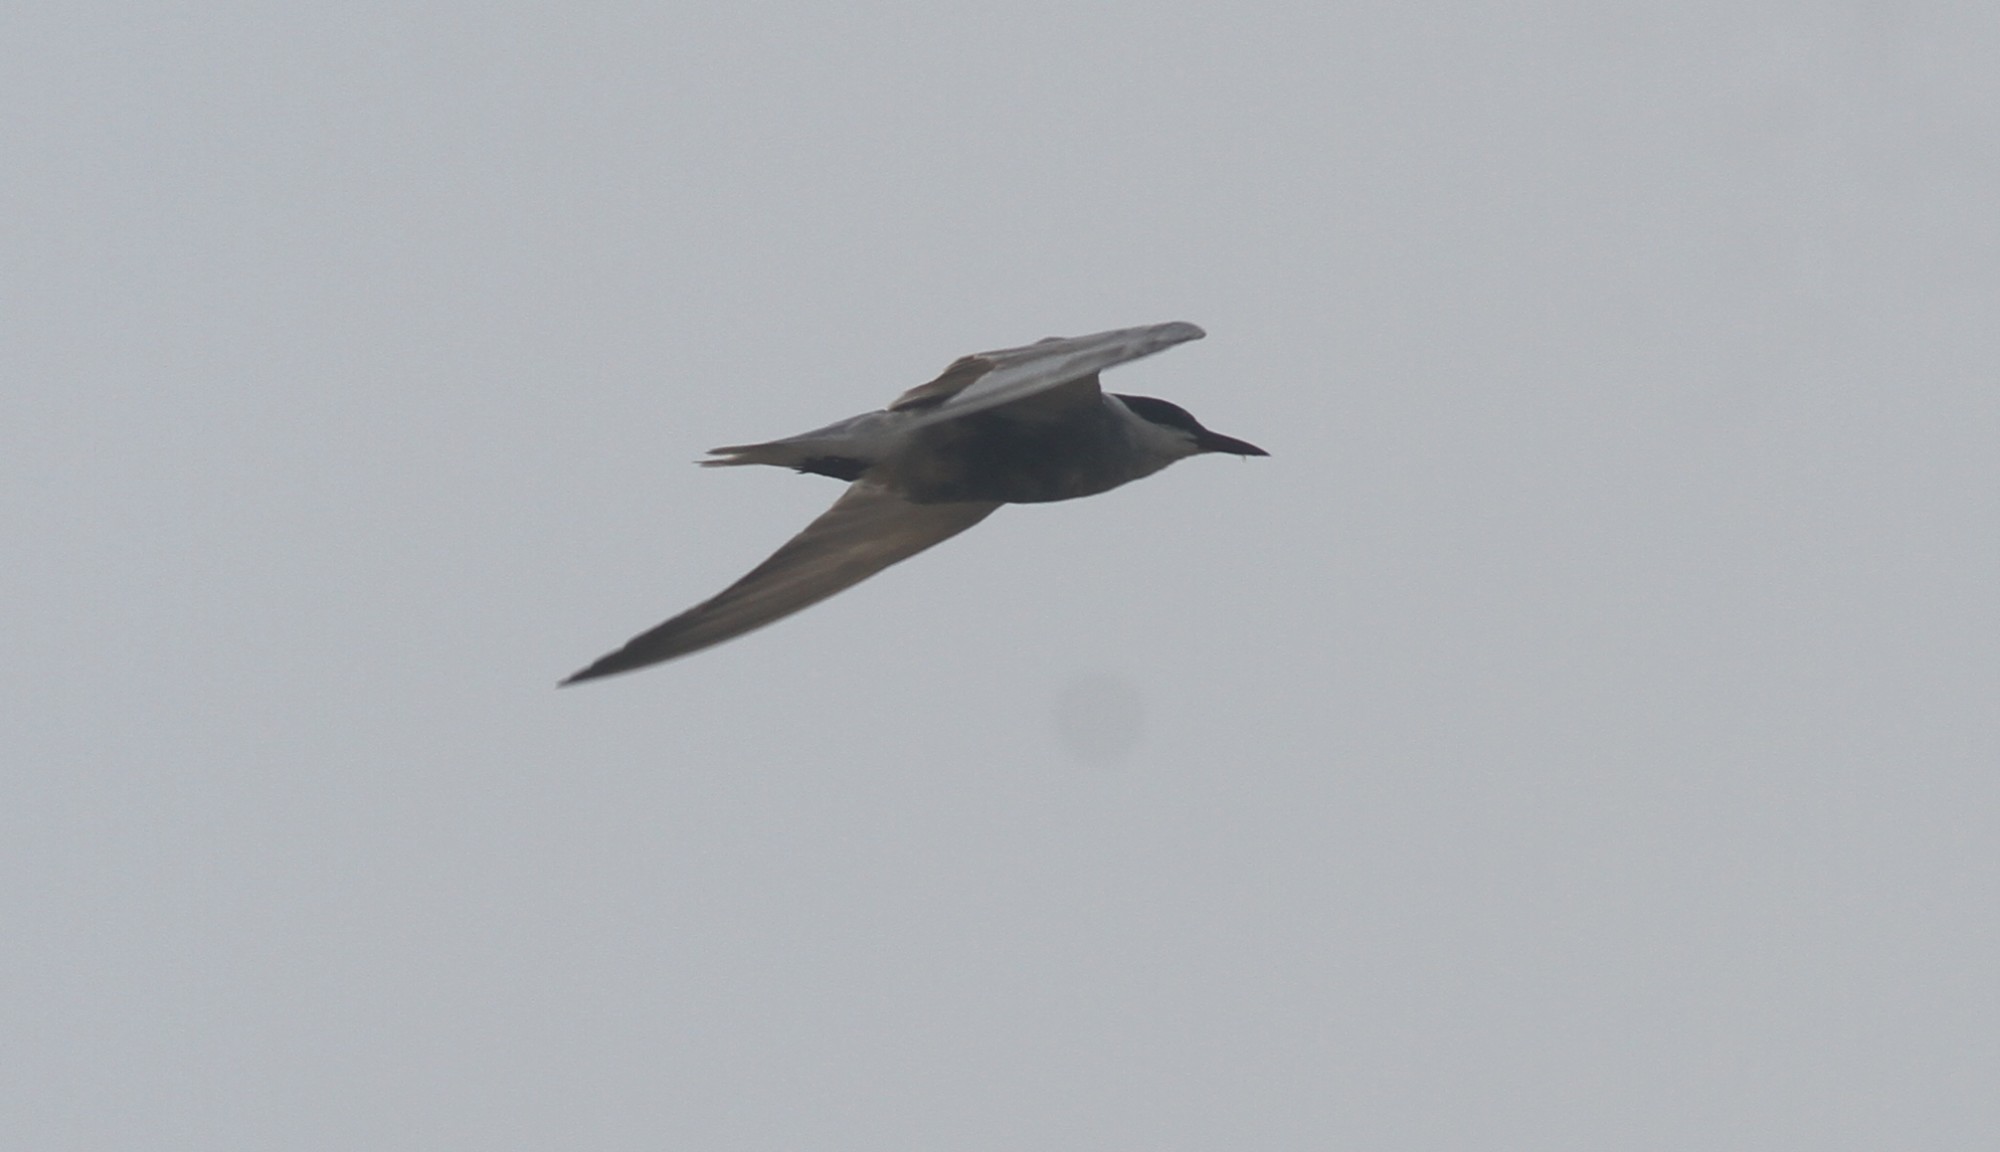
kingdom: Animalia
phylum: Chordata
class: Aves
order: Charadriiformes
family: Laridae
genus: Chlidonias
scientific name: Chlidonias hybrida
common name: Whiskered tern
